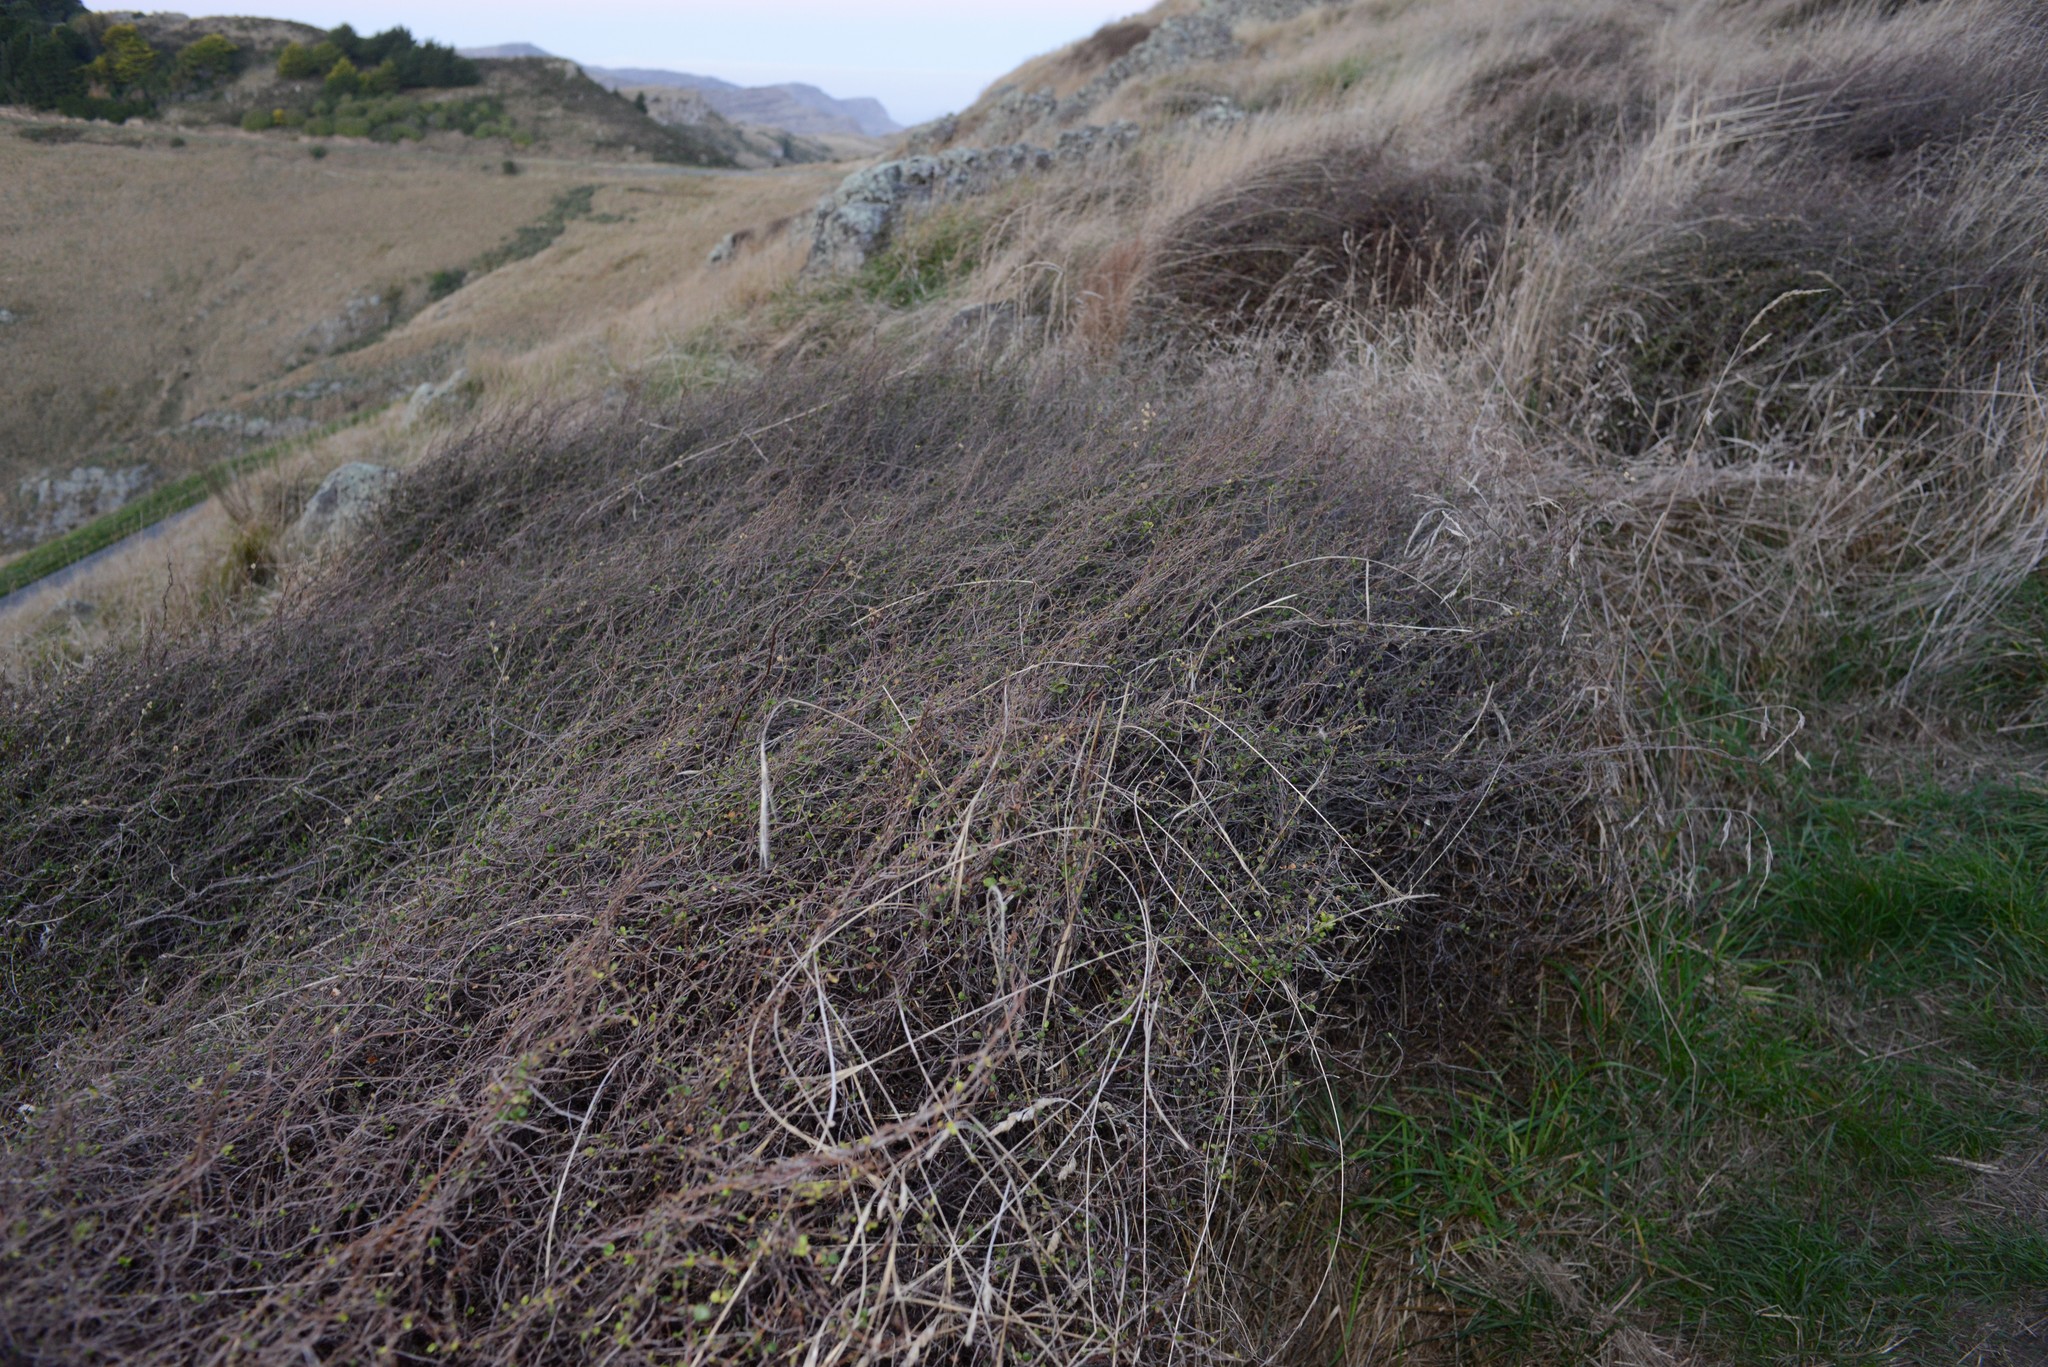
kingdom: Plantae
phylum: Tracheophyta
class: Magnoliopsida
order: Caryophyllales
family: Polygonaceae
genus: Muehlenbeckia
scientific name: Muehlenbeckia complexa
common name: Wireplant
